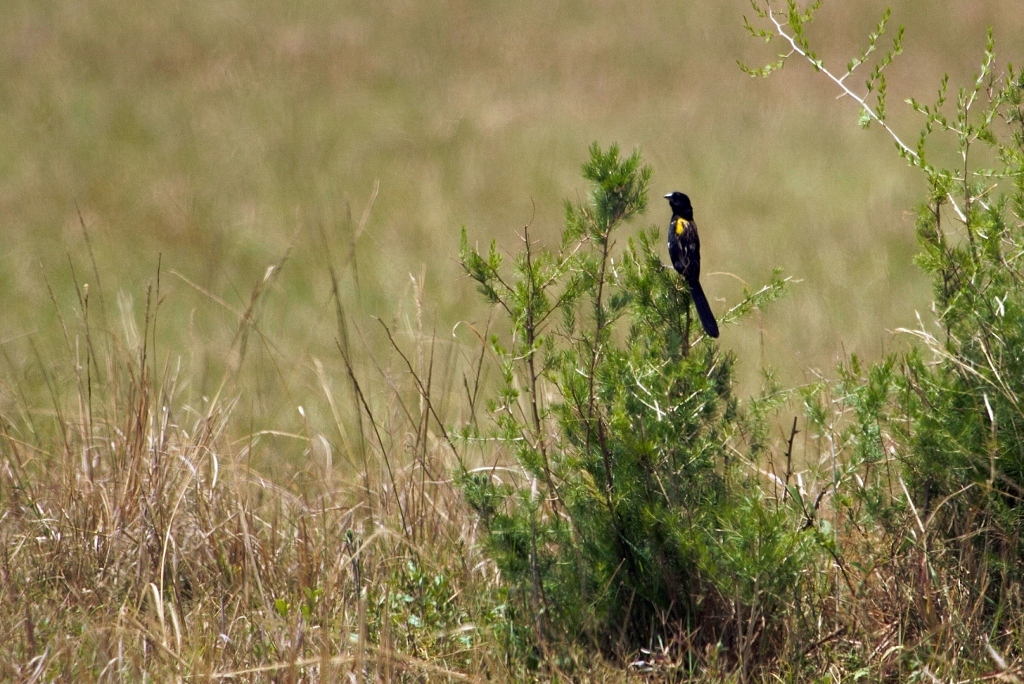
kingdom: Animalia
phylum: Chordata
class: Aves
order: Passeriformes
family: Ploceidae
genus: Euplectes
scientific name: Euplectes macroura
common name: Yellow-mantled widowbird
